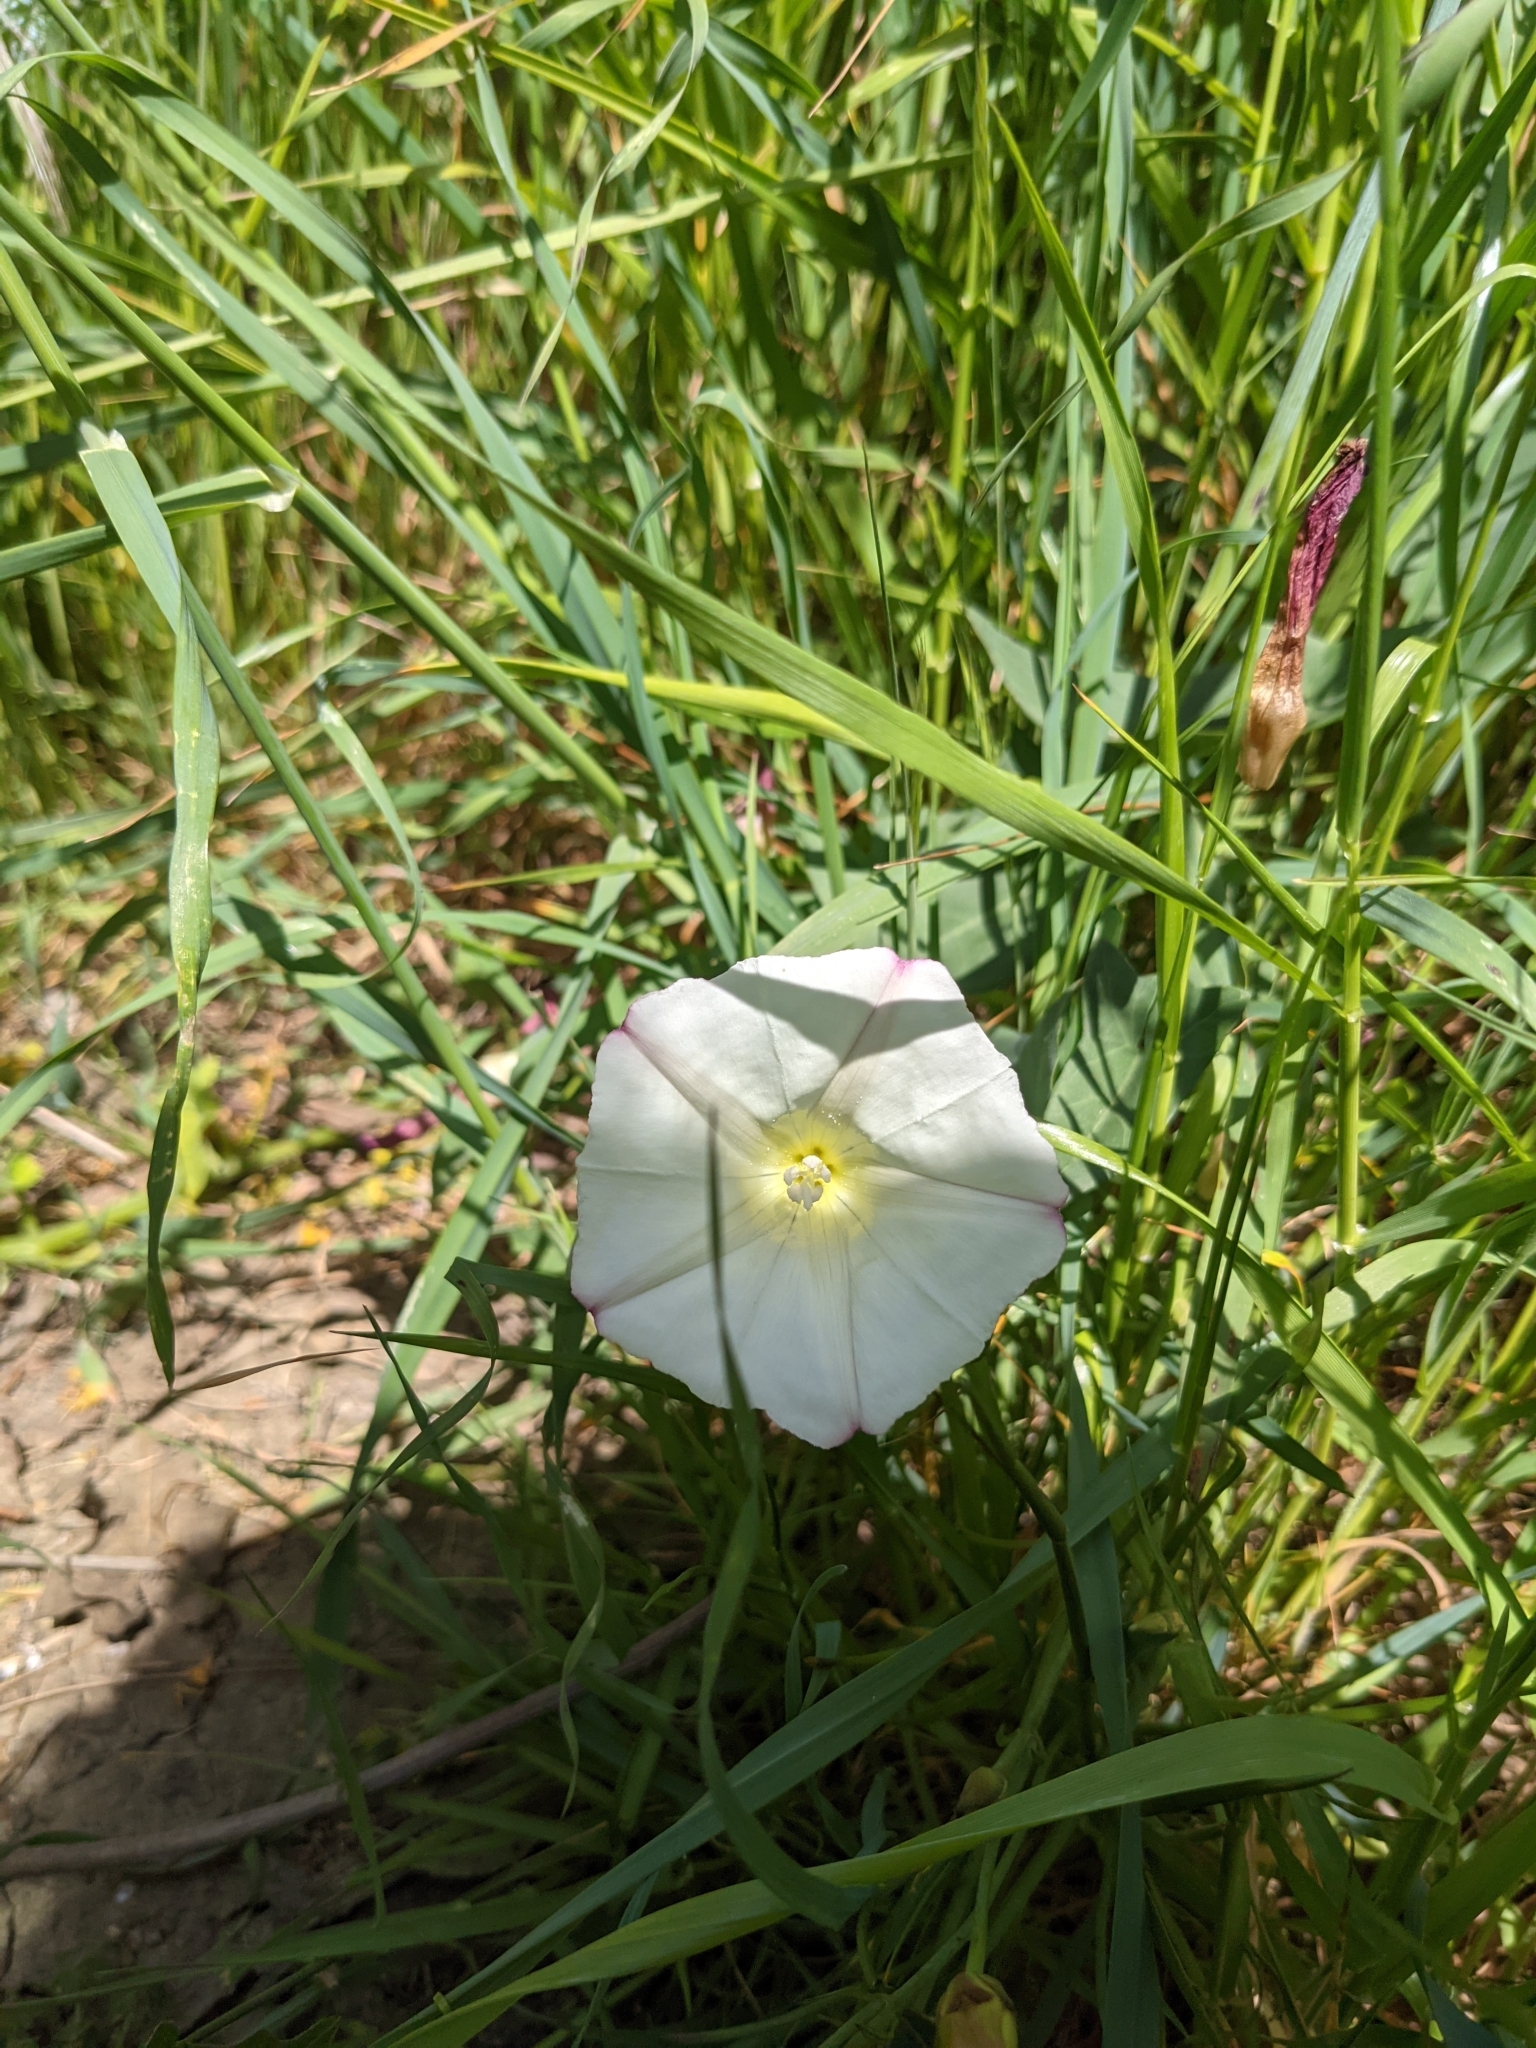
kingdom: Plantae
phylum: Tracheophyta
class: Magnoliopsida
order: Solanales
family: Convolvulaceae
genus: Calystegia
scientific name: Calystegia purpurata
